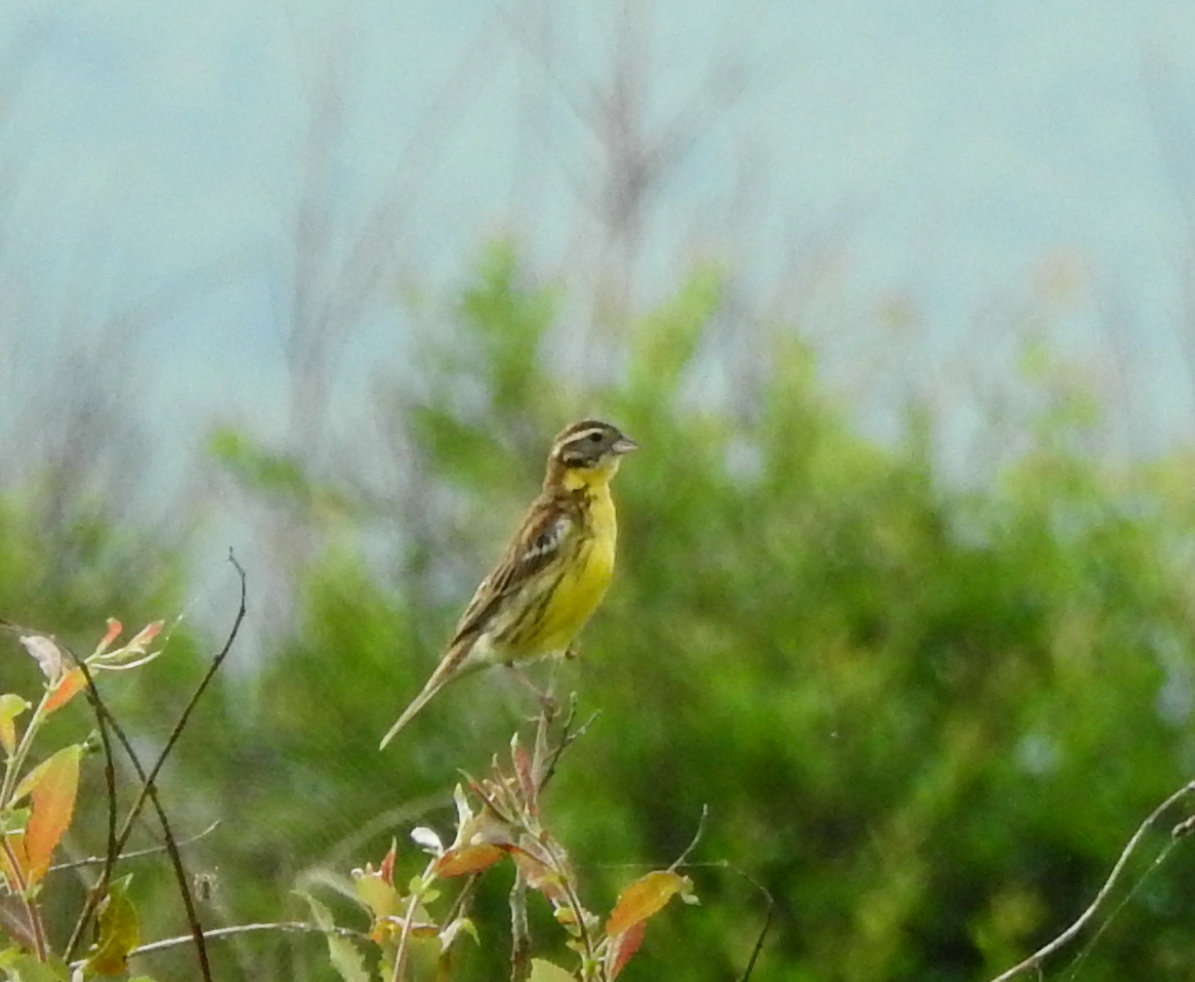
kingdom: Animalia
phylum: Chordata
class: Aves
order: Passeriformes
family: Emberizidae
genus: Emberiza
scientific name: Emberiza aureola
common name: Yellow-breasted bunting
